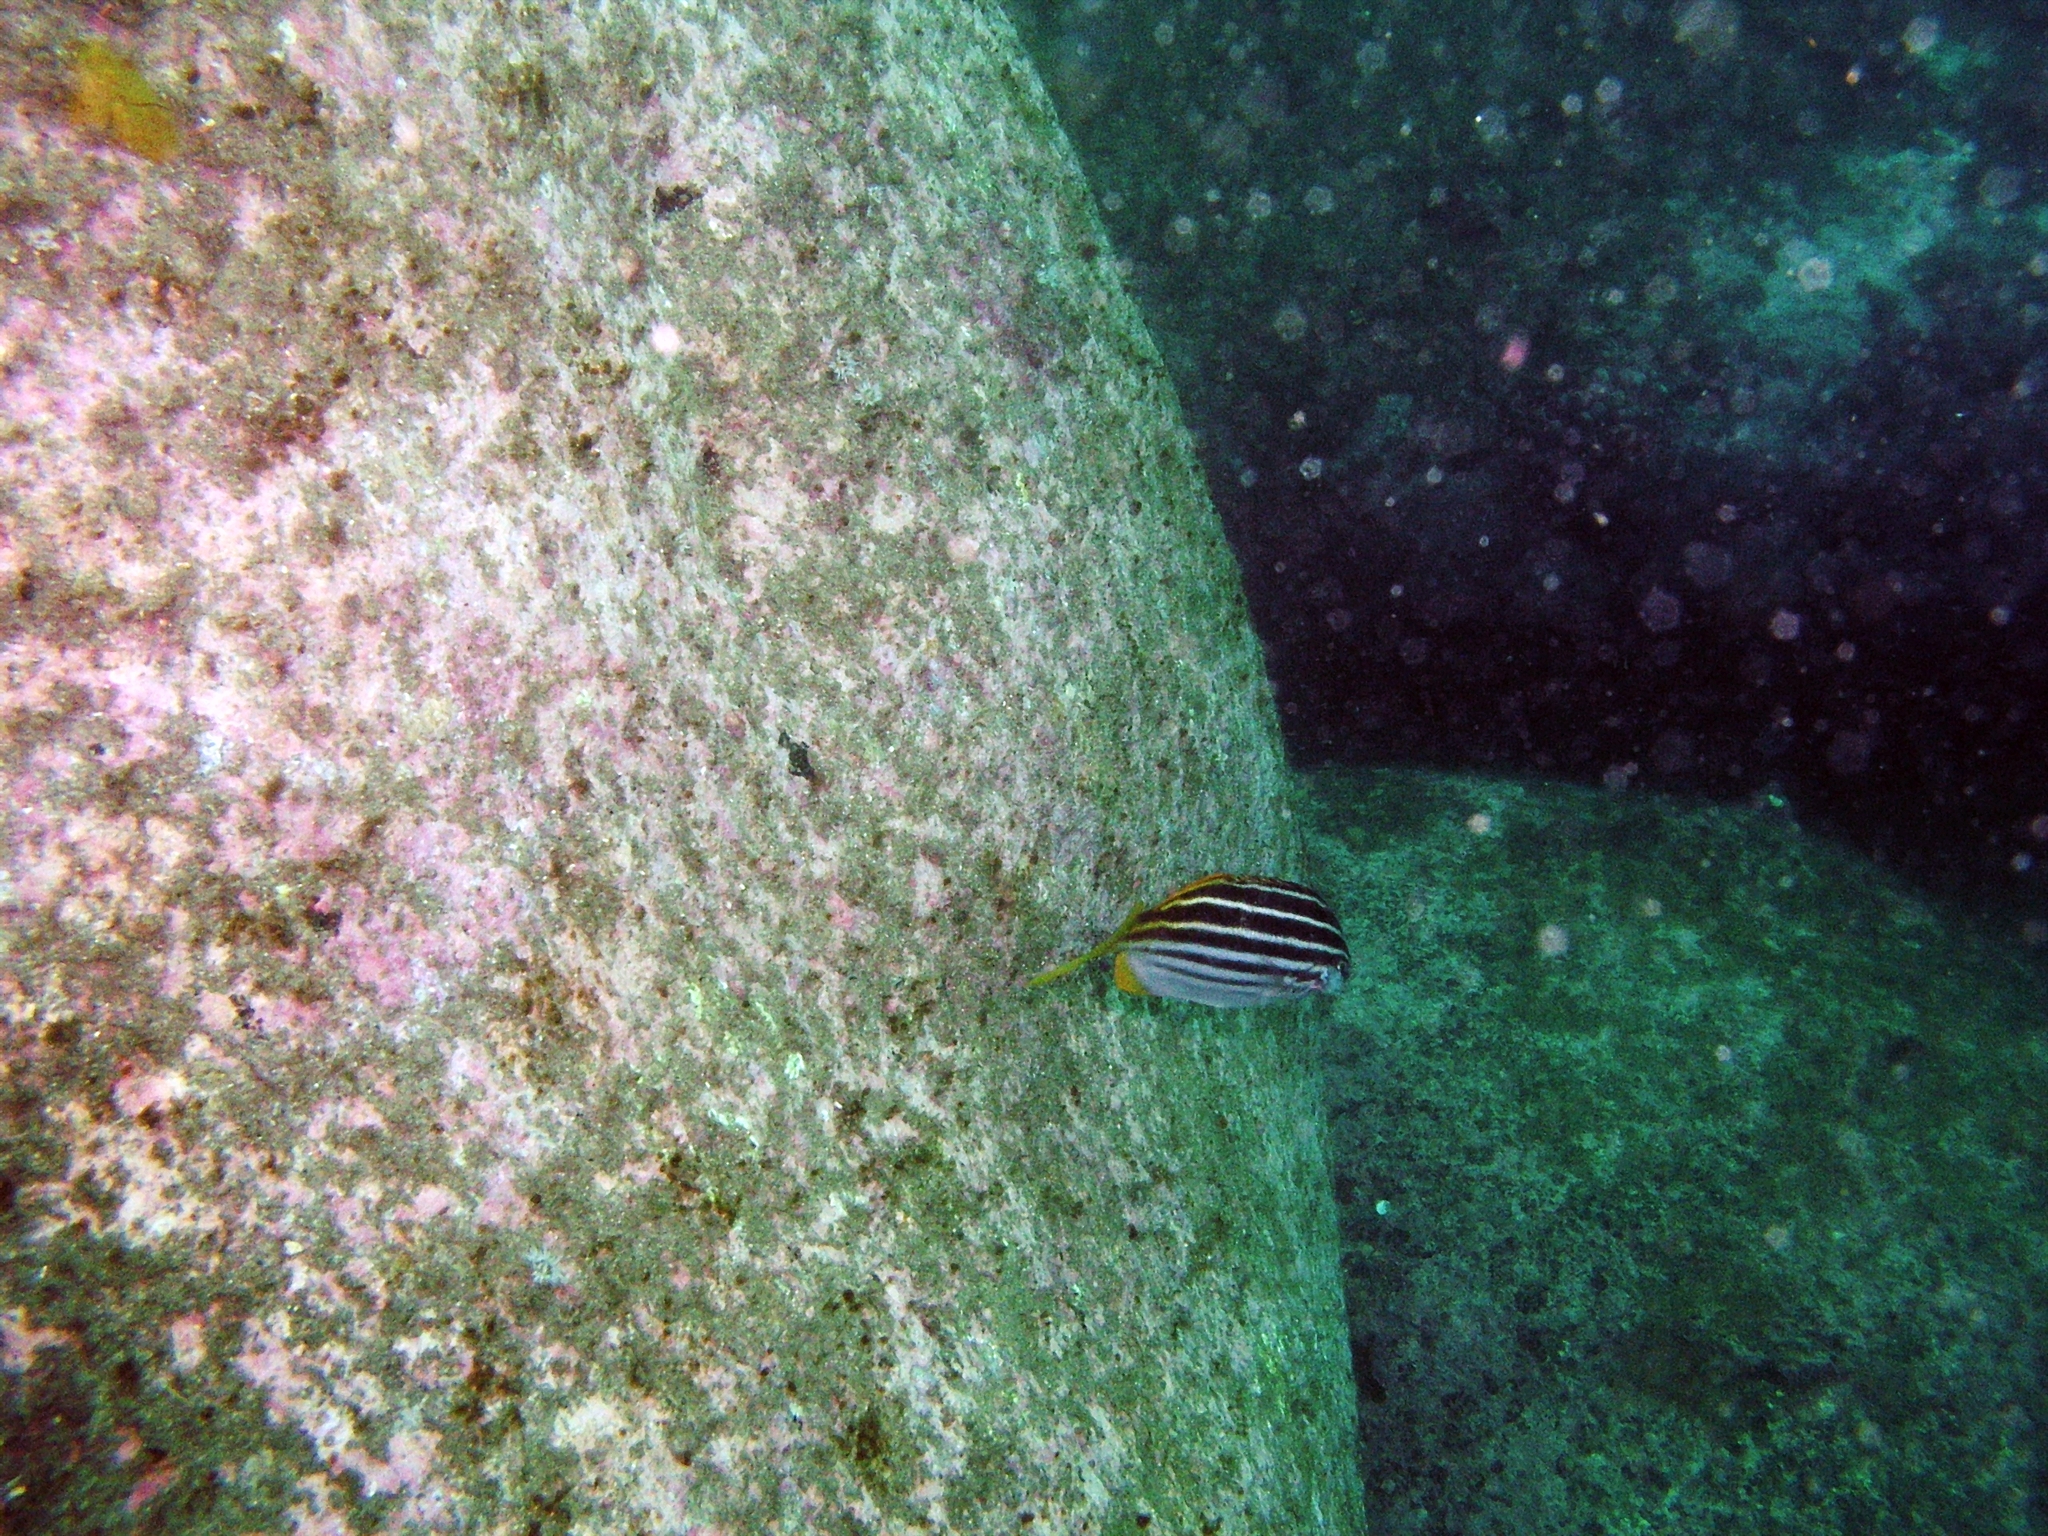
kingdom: Animalia
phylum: Chordata
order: Perciformes
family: Kyphosidae
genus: Atypichthys
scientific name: Atypichthys strigatus
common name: Australian mado
